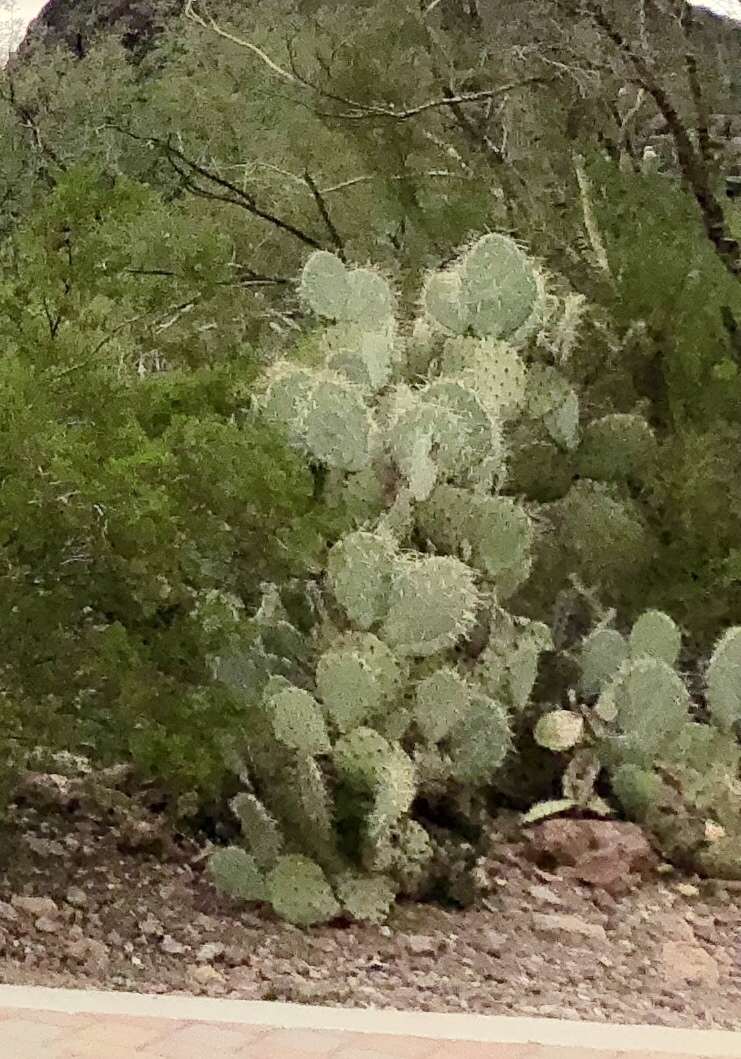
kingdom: Plantae
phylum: Tracheophyta
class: Magnoliopsida
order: Caryophyllales
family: Cactaceae
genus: Opuntia
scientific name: Opuntia engelmannii
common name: Cactus-apple
